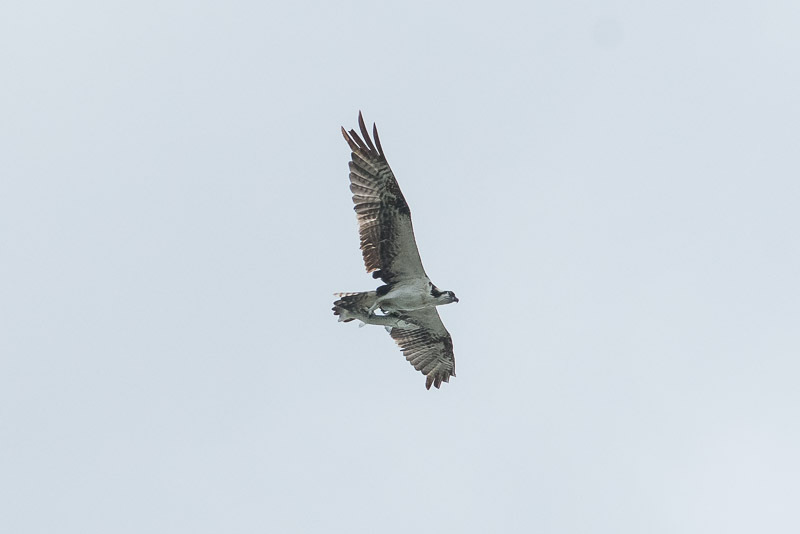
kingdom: Animalia
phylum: Chordata
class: Aves
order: Accipitriformes
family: Pandionidae
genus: Pandion
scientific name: Pandion haliaetus
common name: Osprey
